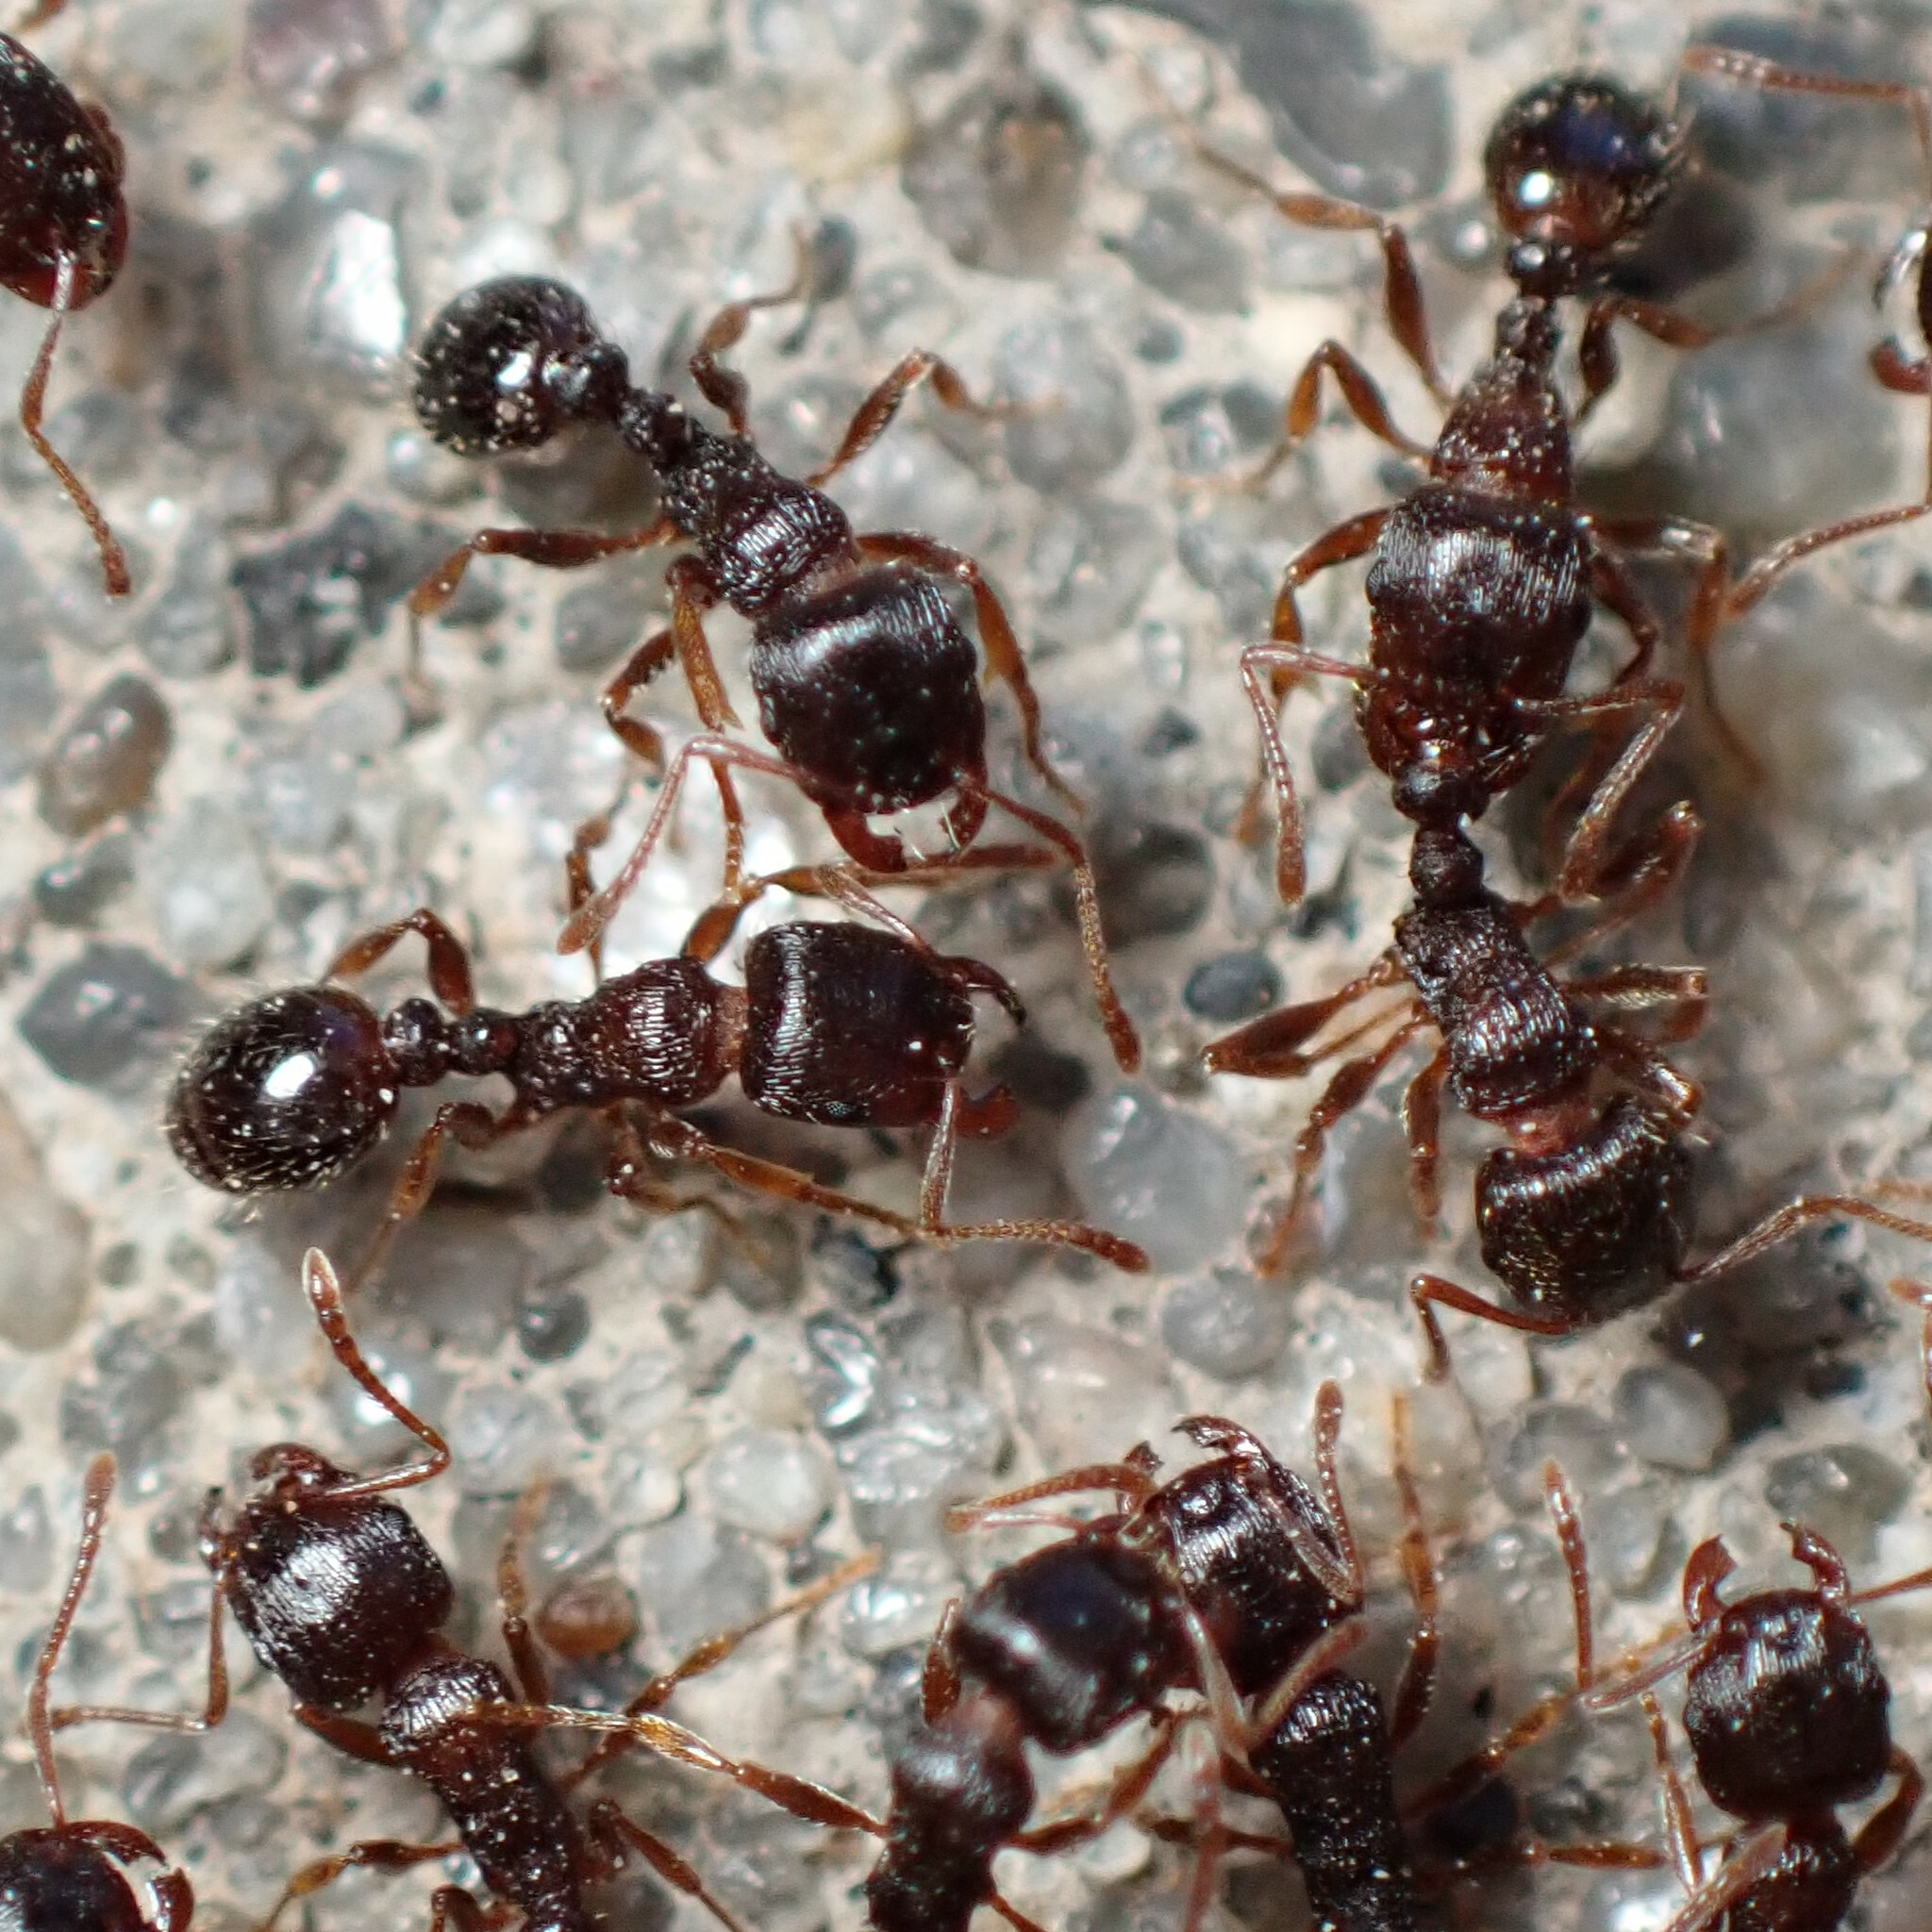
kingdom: Animalia
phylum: Arthropoda
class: Insecta
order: Hymenoptera
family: Formicidae
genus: Tetramorium
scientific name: Tetramorium immigrans
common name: Pavement ant
